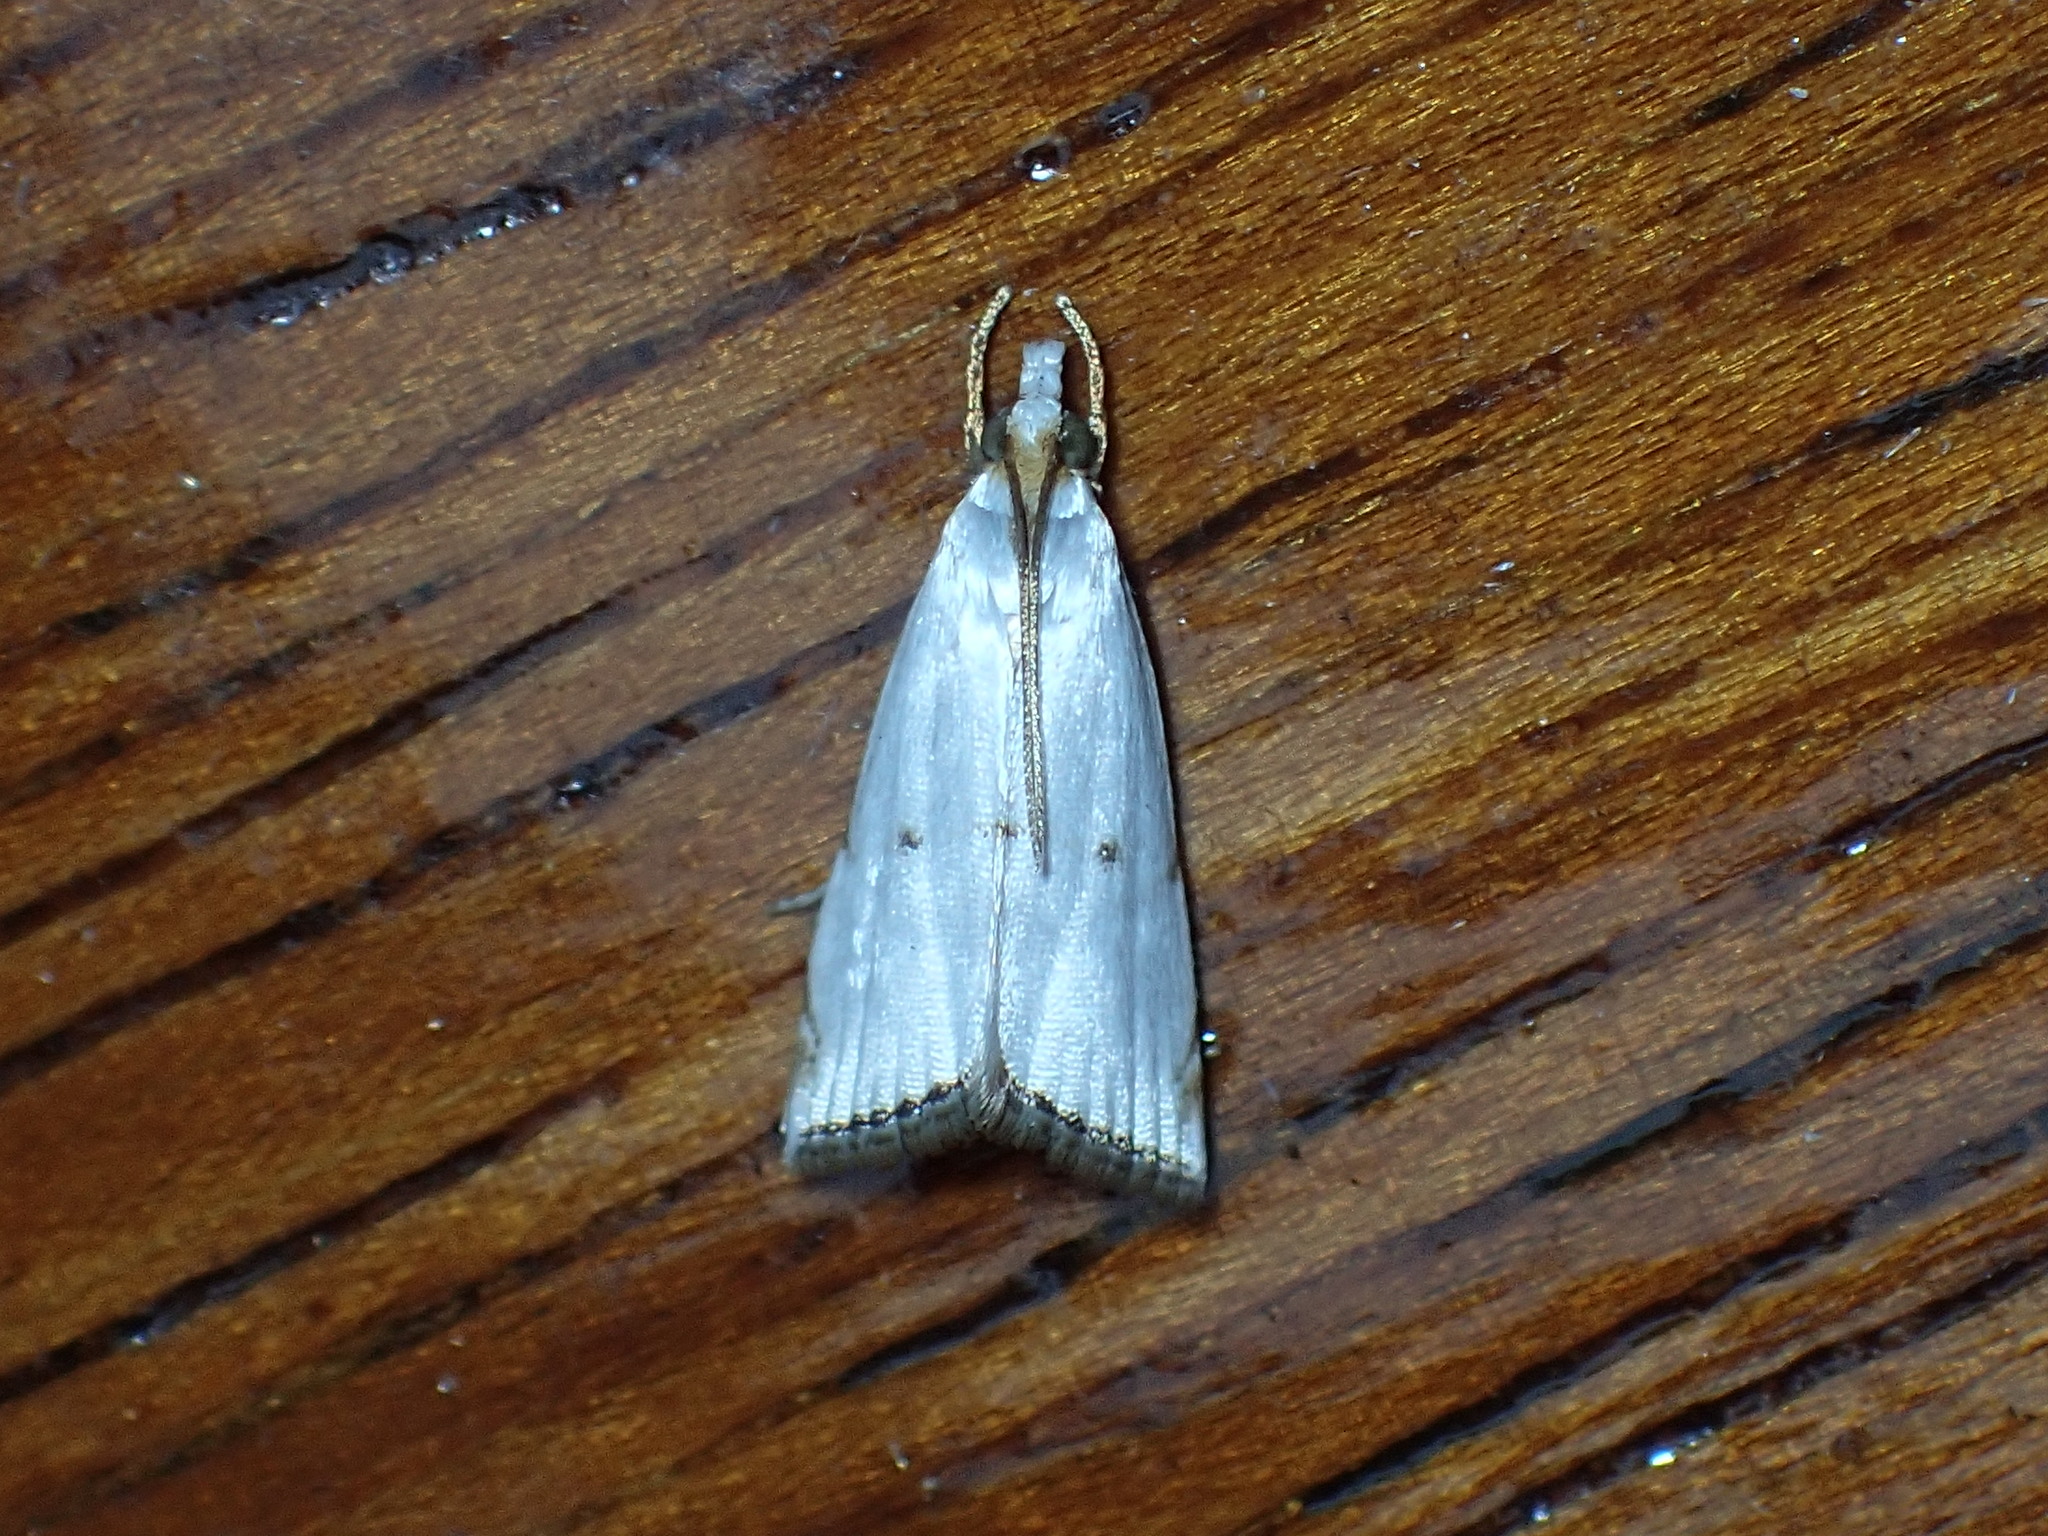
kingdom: Animalia
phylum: Arthropoda
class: Insecta
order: Lepidoptera
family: Crambidae
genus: Argyria
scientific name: Argyria pusillalis
